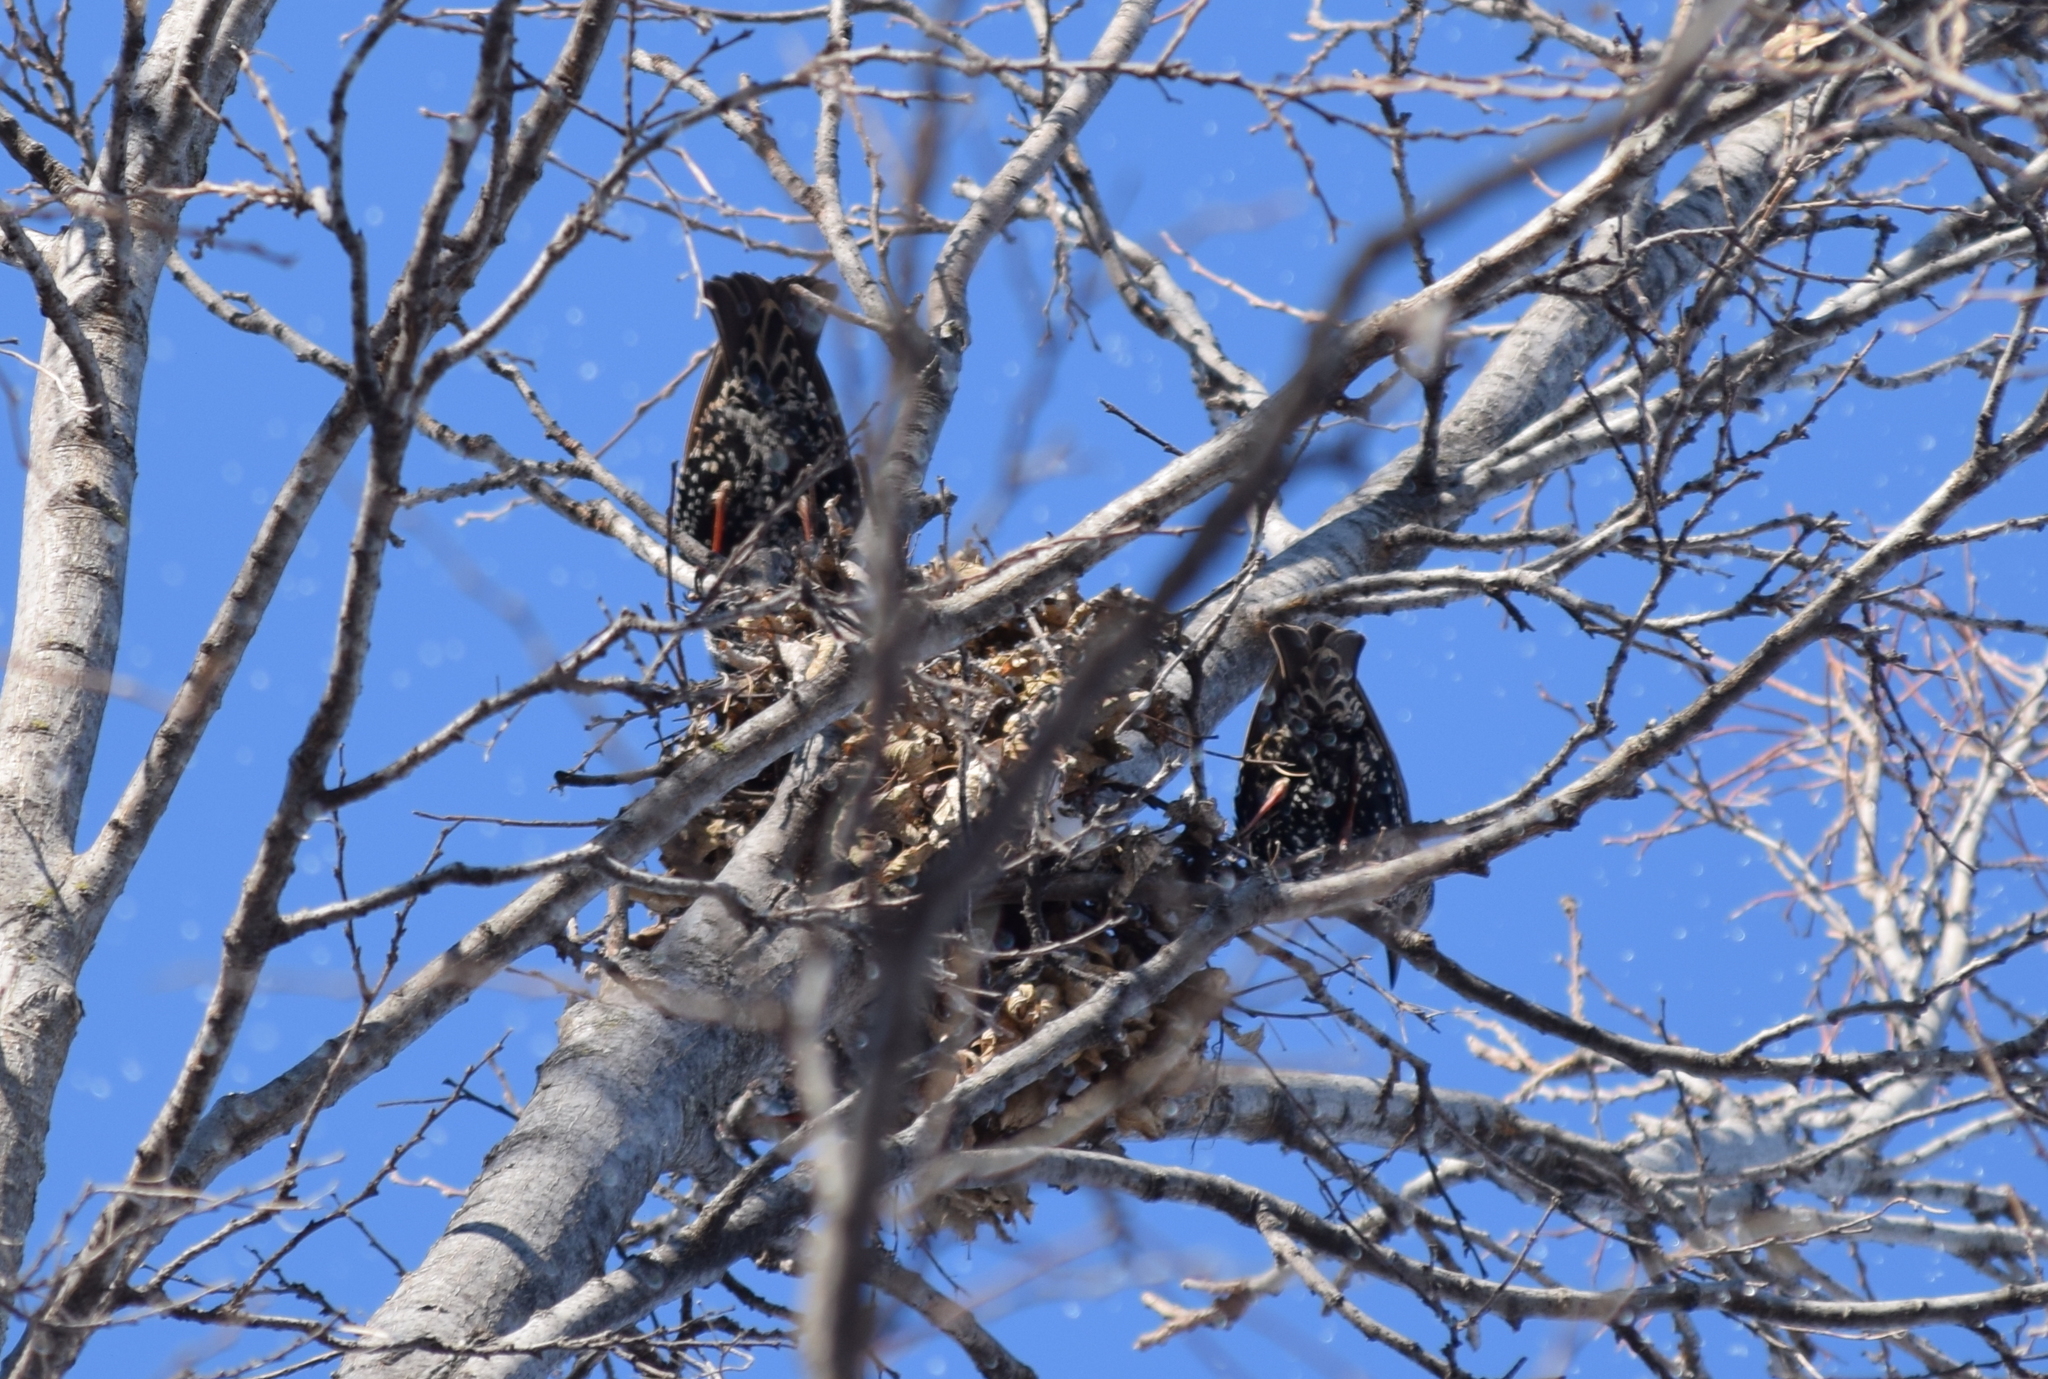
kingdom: Animalia
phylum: Chordata
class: Aves
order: Passeriformes
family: Sturnidae
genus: Sturnus
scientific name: Sturnus vulgaris
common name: Common starling
